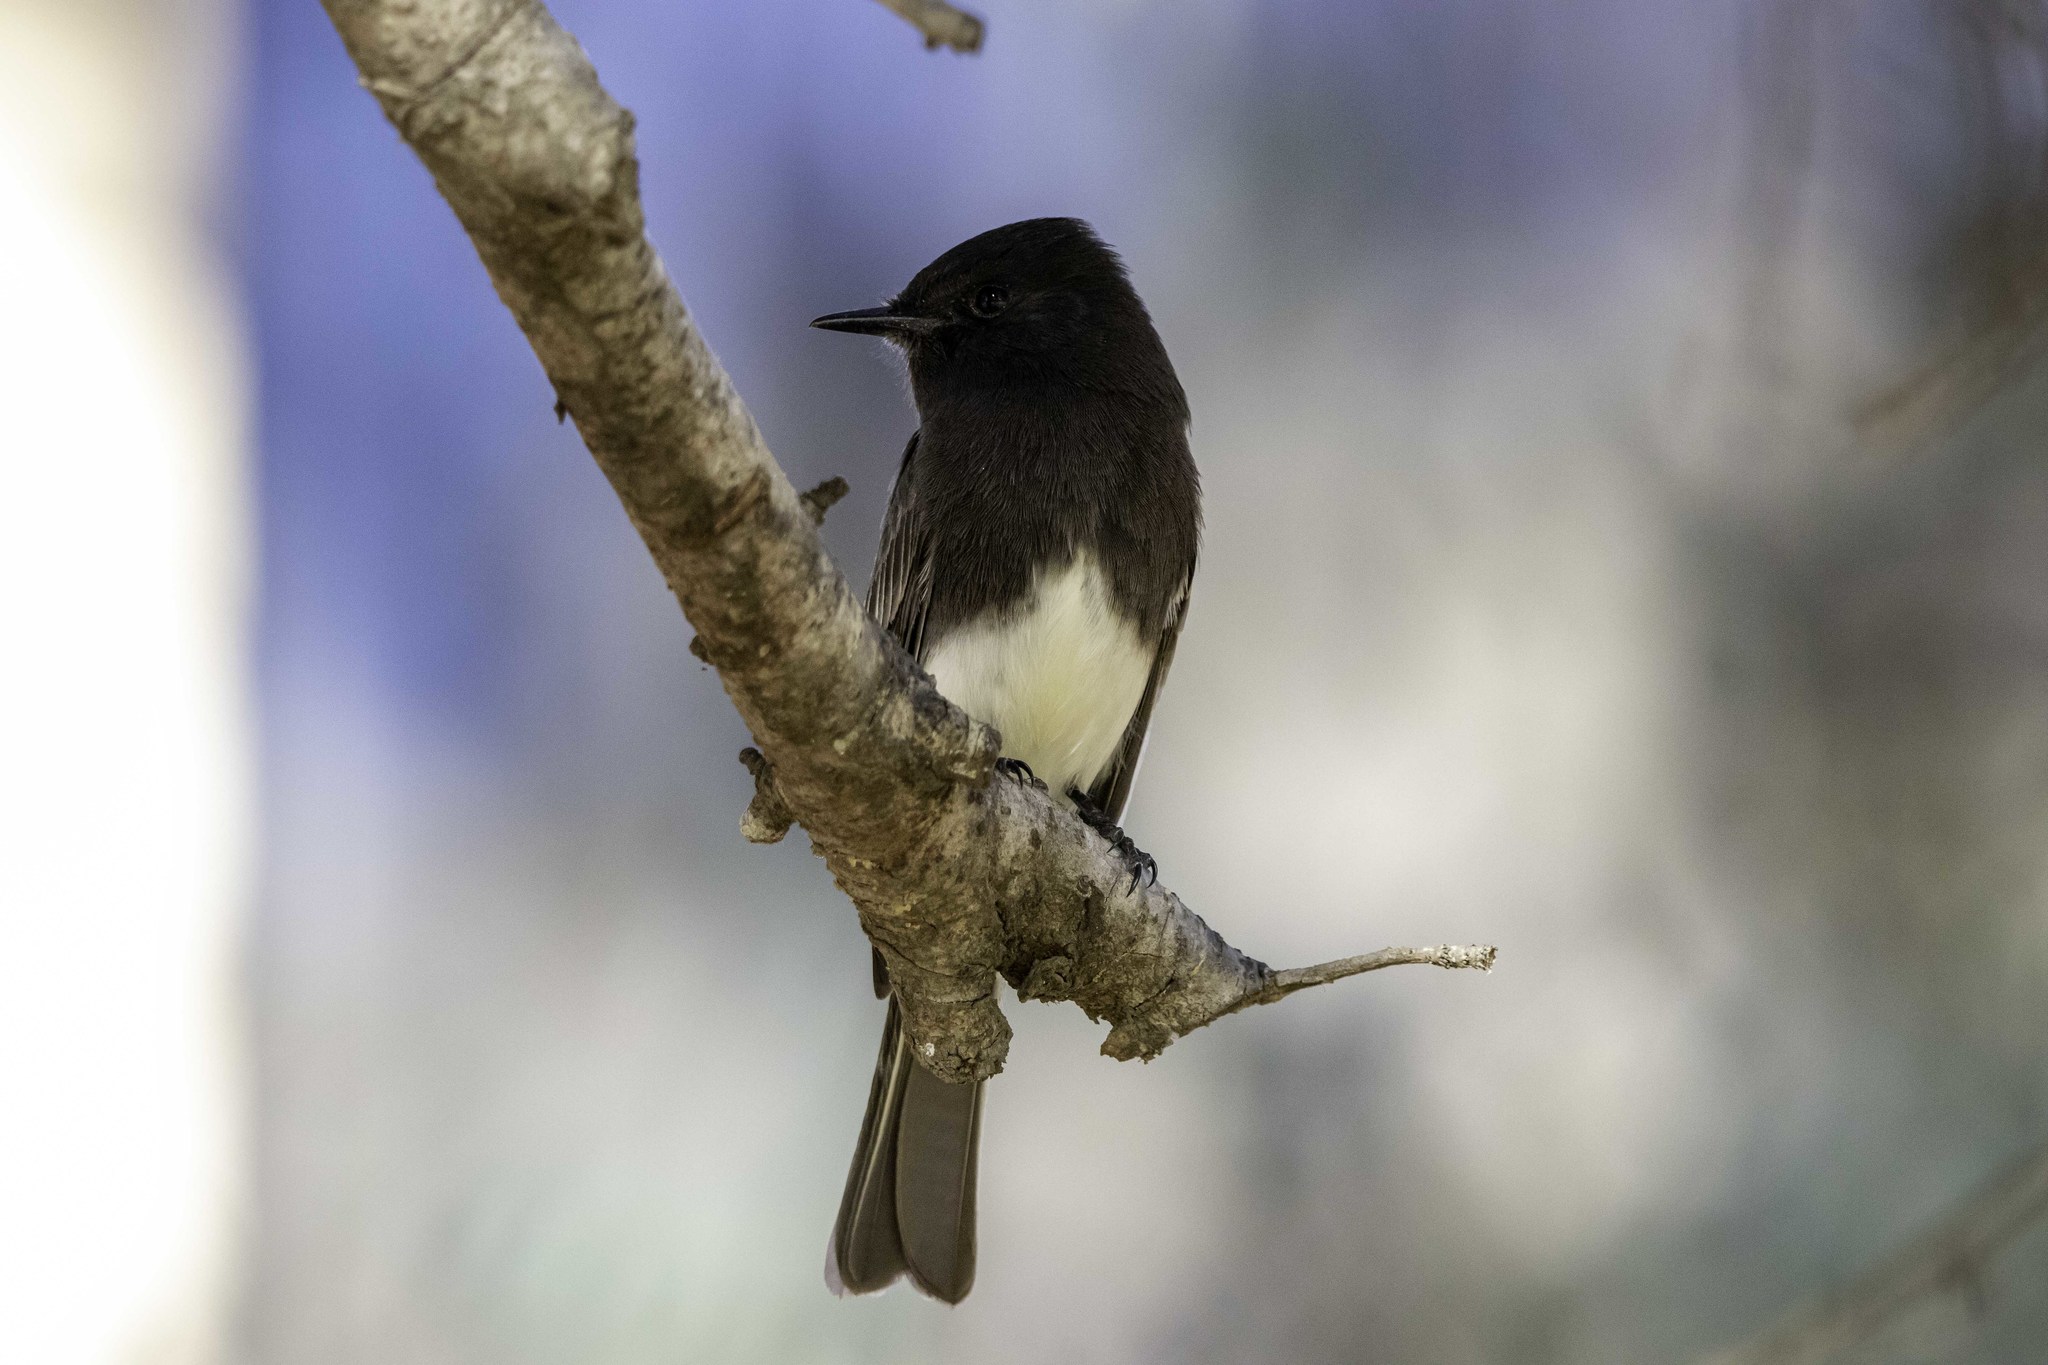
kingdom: Animalia
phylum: Chordata
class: Aves
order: Passeriformes
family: Tyrannidae
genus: Sayornis
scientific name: Sayornis nigricans
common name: Black phoebe
